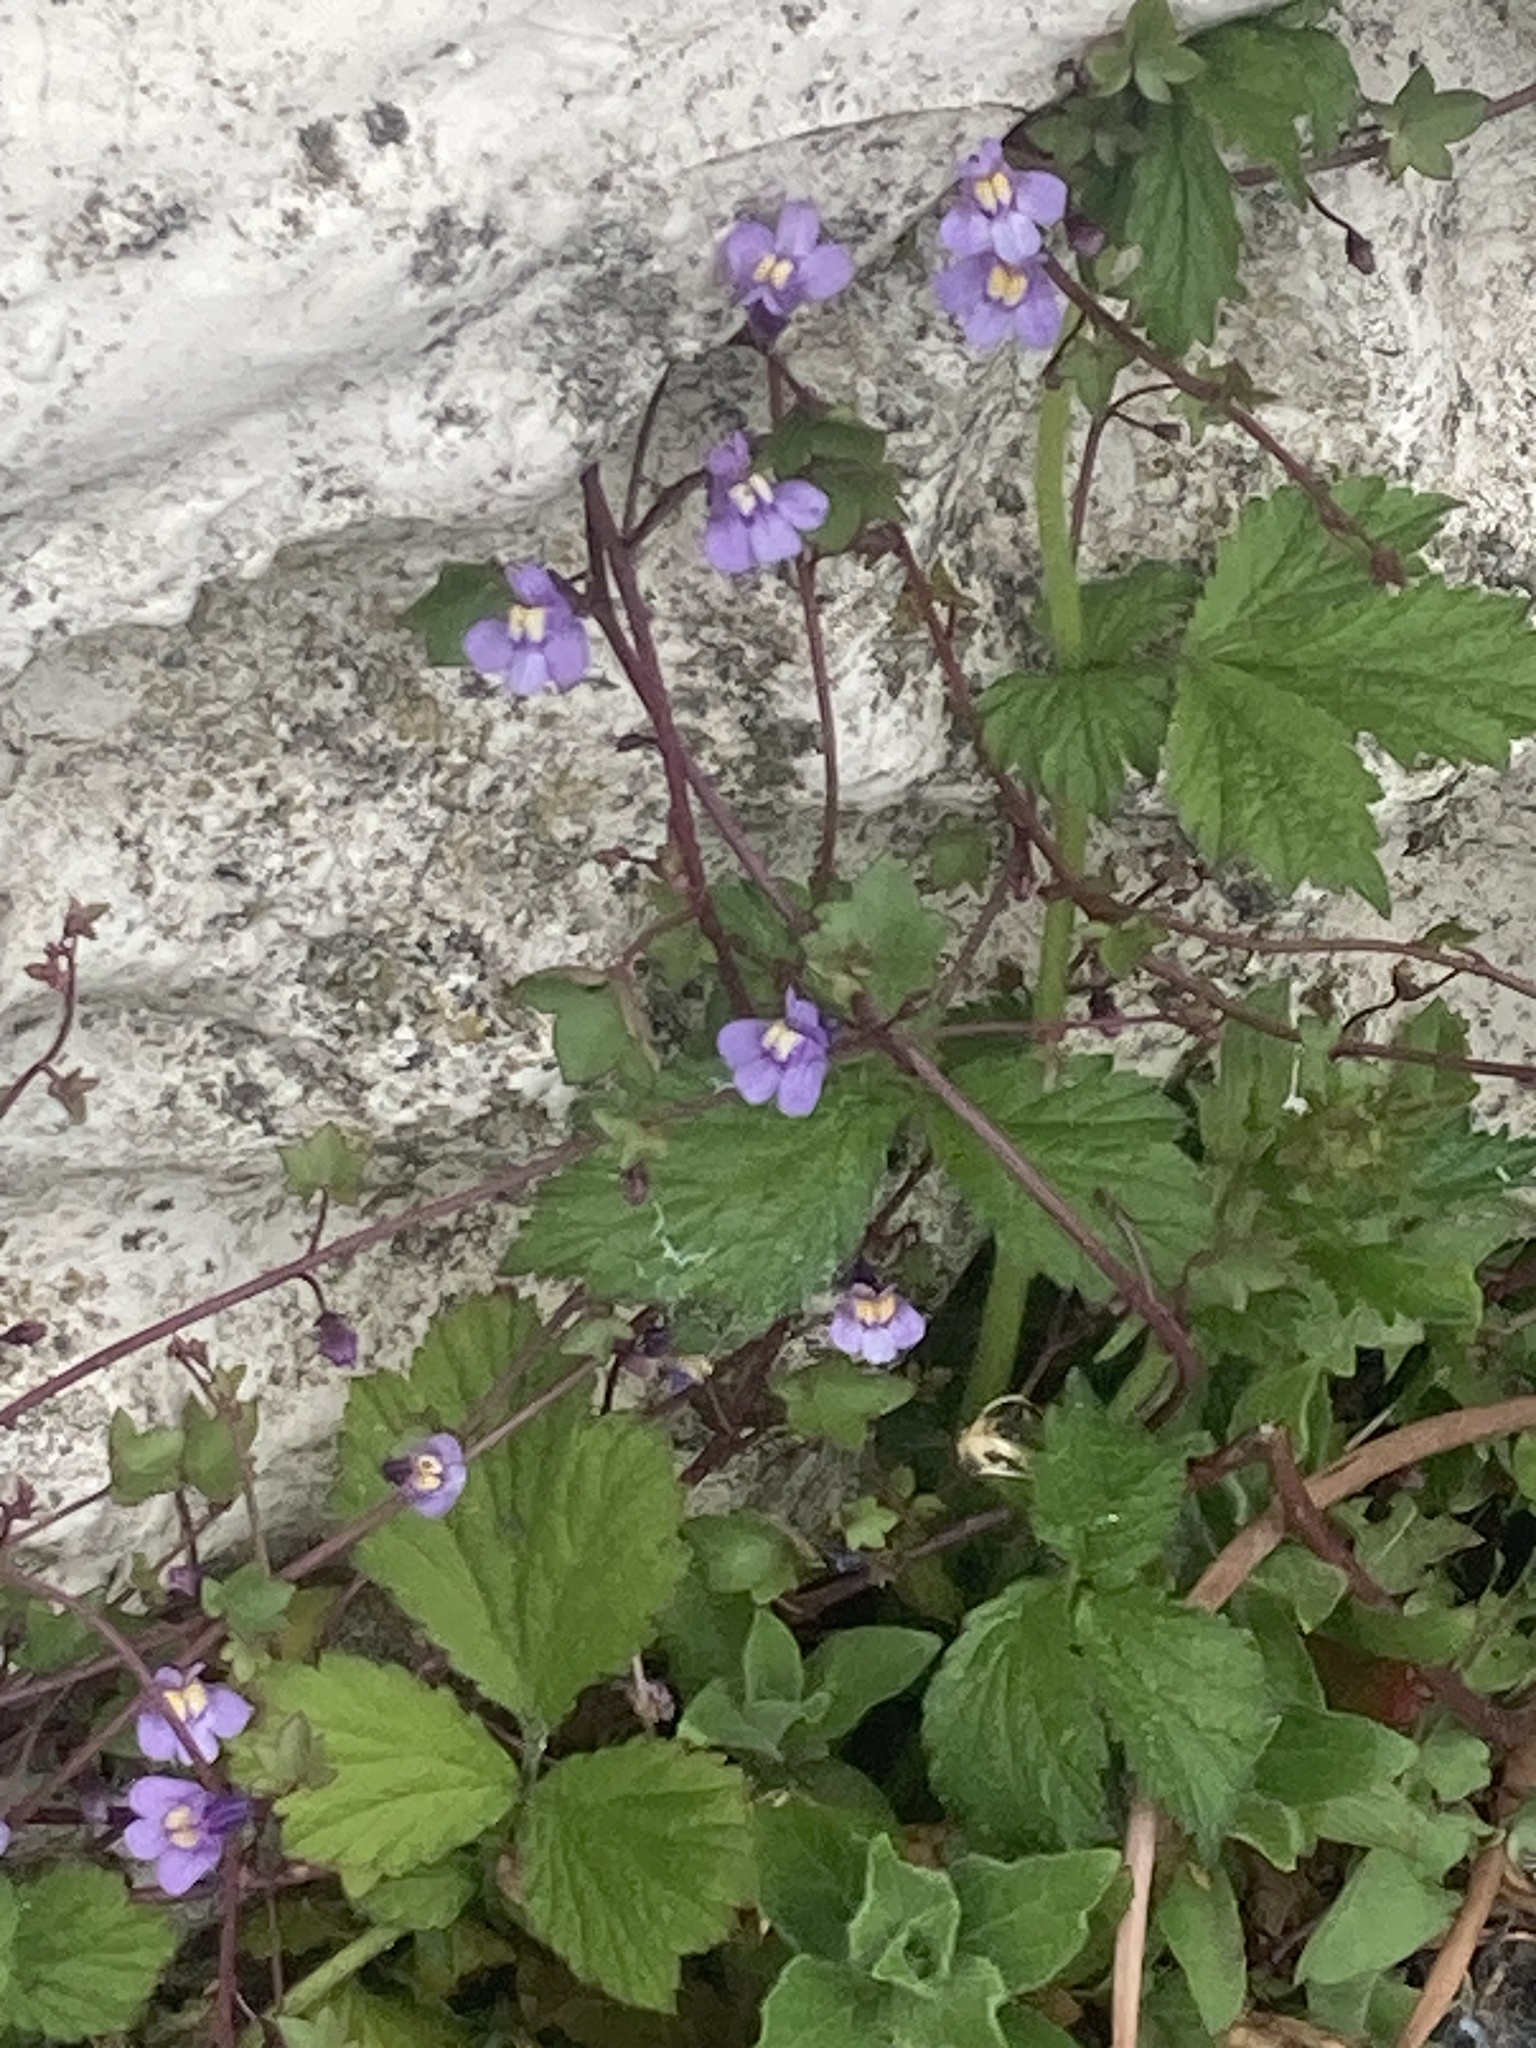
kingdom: Plantae
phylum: Tracheophyta
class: Magnoliopsida
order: Lamiales
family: Plantaginaceae
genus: Cymbalaria
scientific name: Cymbalaria muralis
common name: Ivy-leaved toadflax
